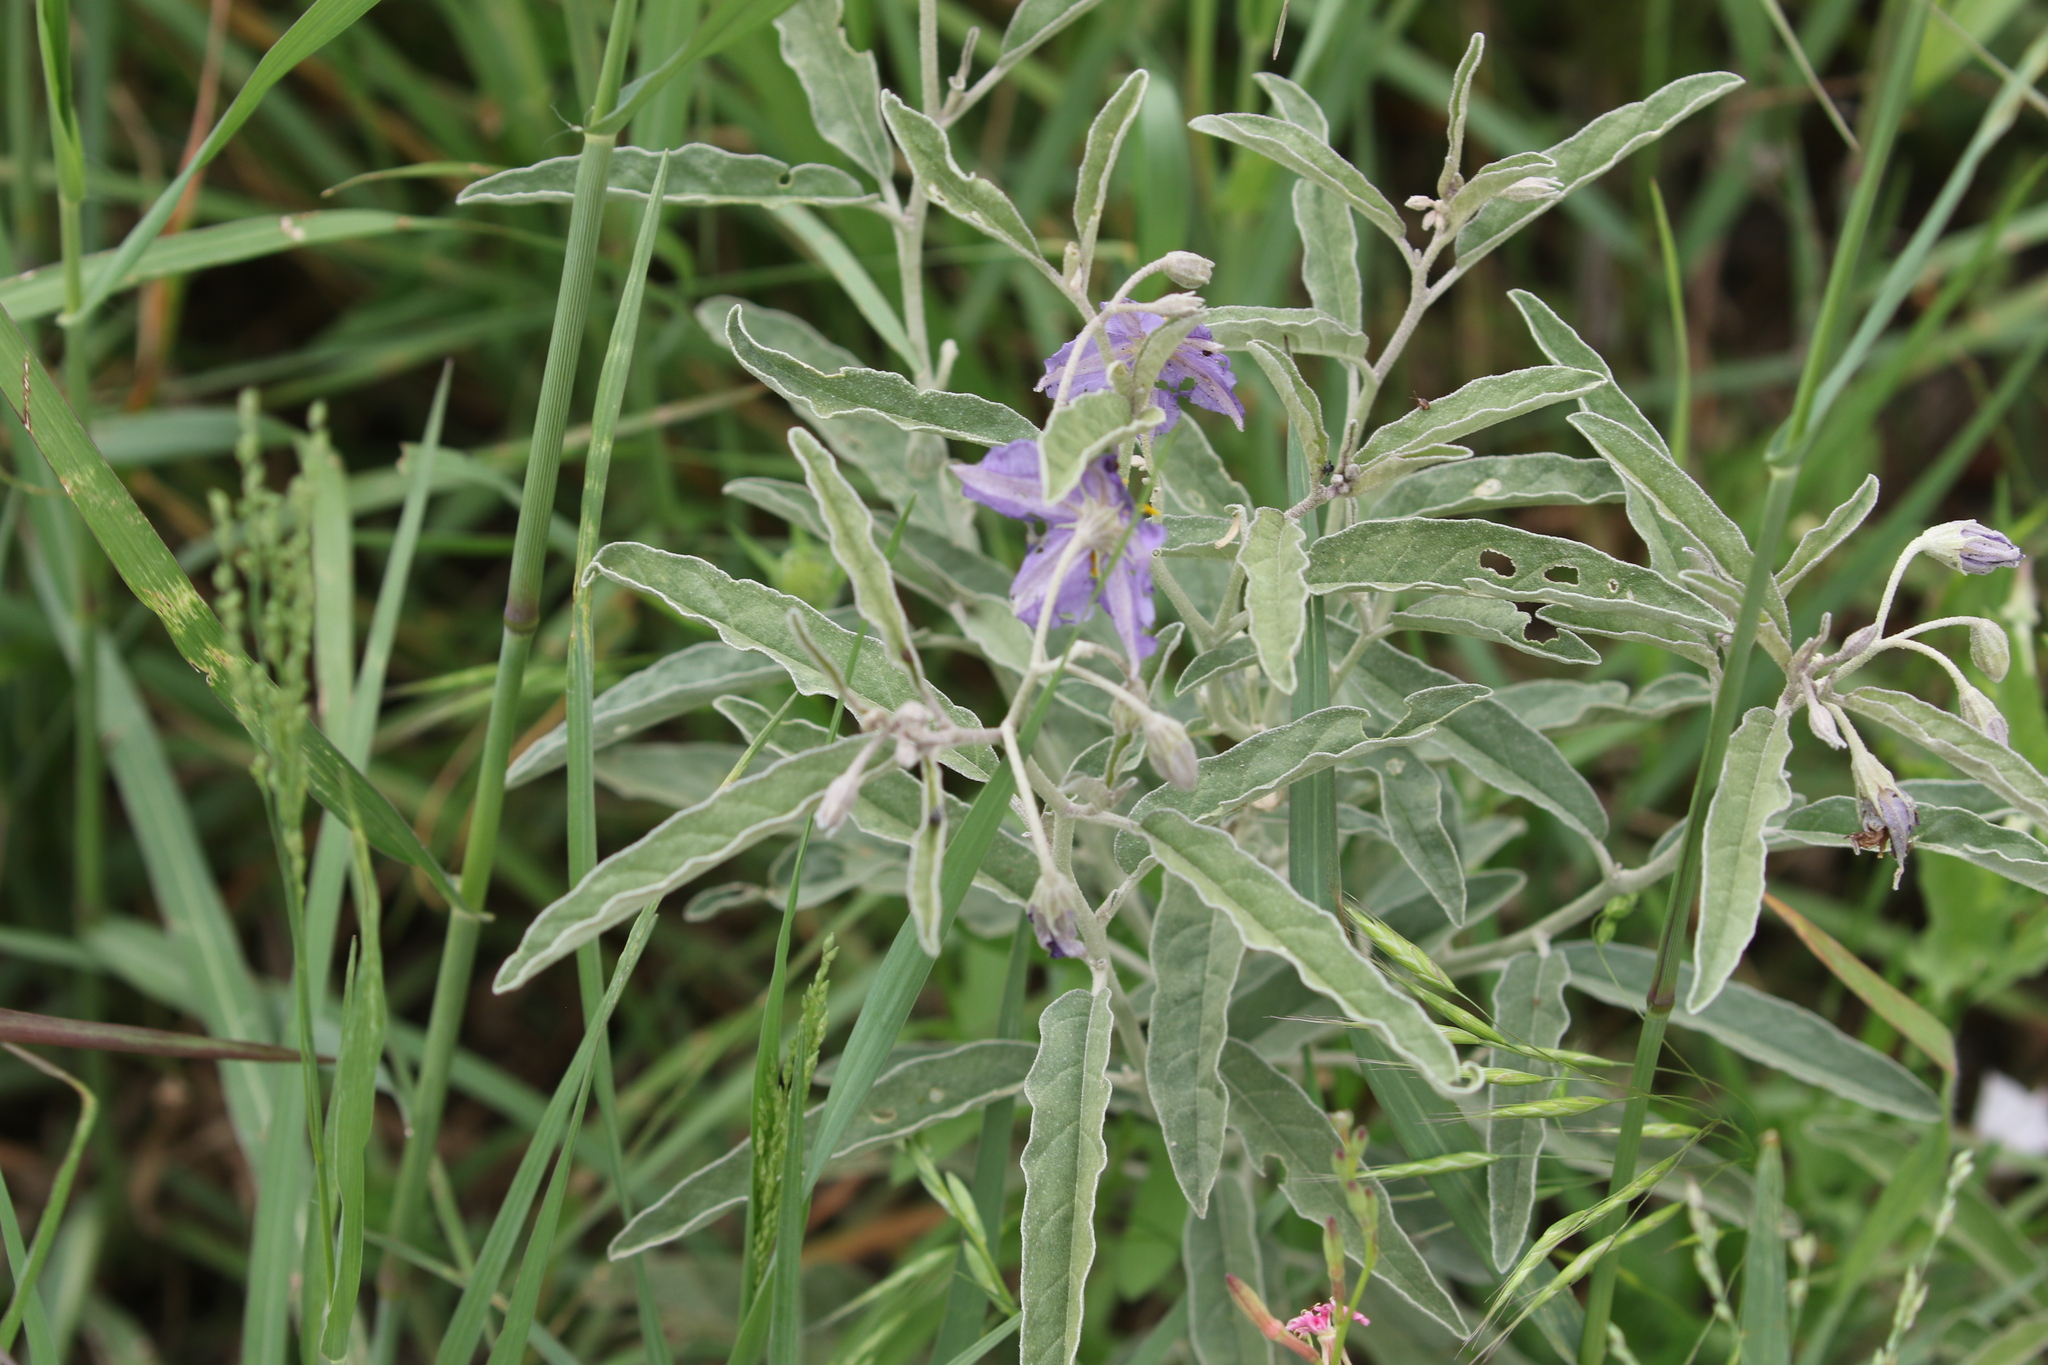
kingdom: Plantae
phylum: Tracheophyta
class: Magnoliopsida
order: Solanales
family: Solanaceae
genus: Solanum
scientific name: Solanum elaeagnifolium
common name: Silverleaf nightshade
